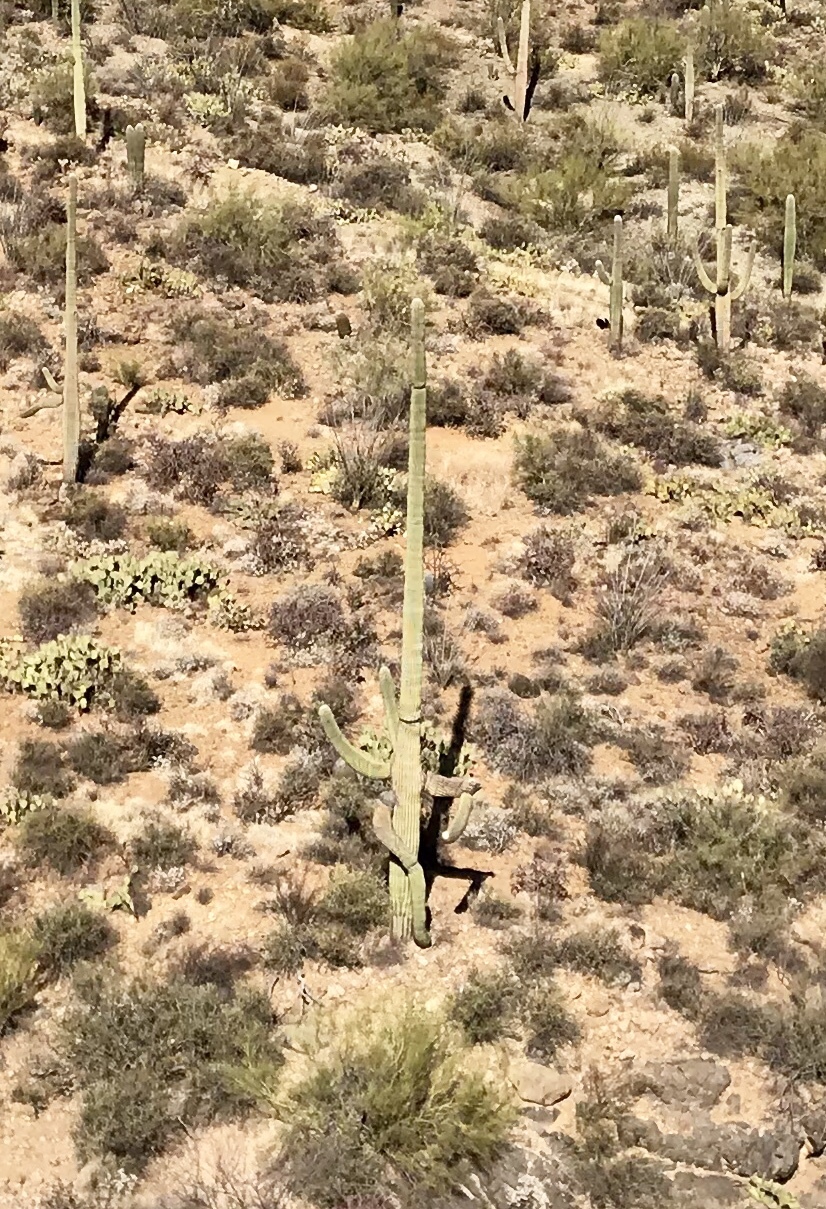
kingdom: Plantae
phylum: Tracheophyta
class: Magnoliopsida
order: Caryophyllales
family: Cactaceae
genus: Carnegiea
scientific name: Carnegiea gigantea
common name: Saguaro
